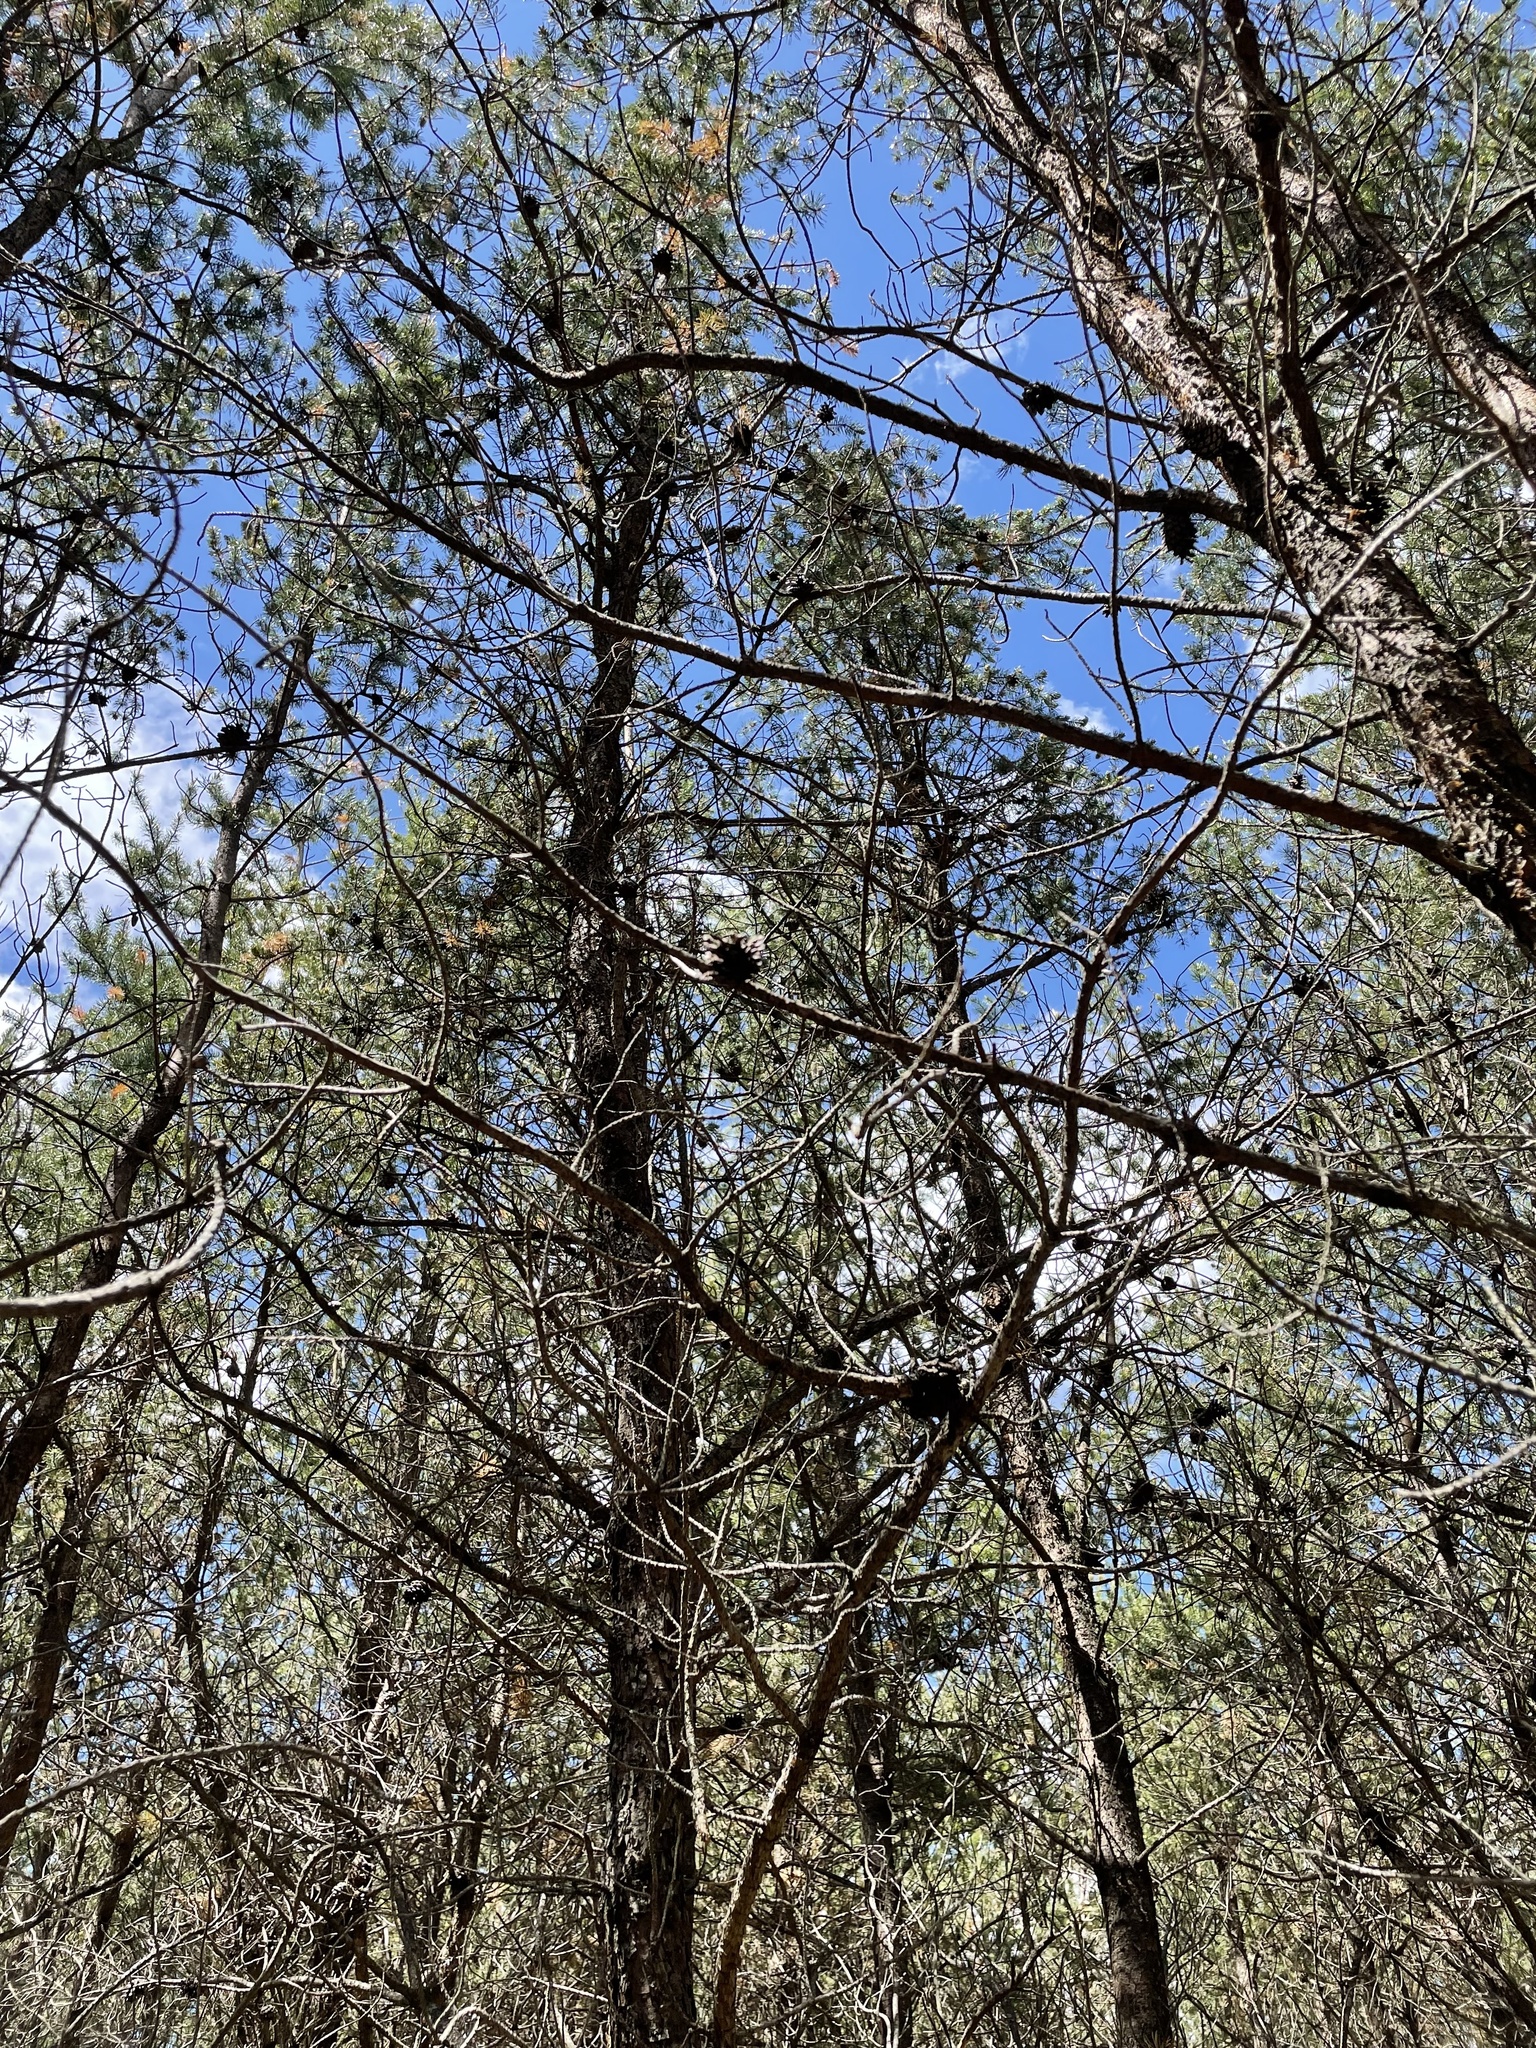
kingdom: Plantae
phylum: Tracheophyta
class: Pinopsida
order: Pinales
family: Pinaceae
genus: Pinus
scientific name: Pinus banksiana
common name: Jack pine
